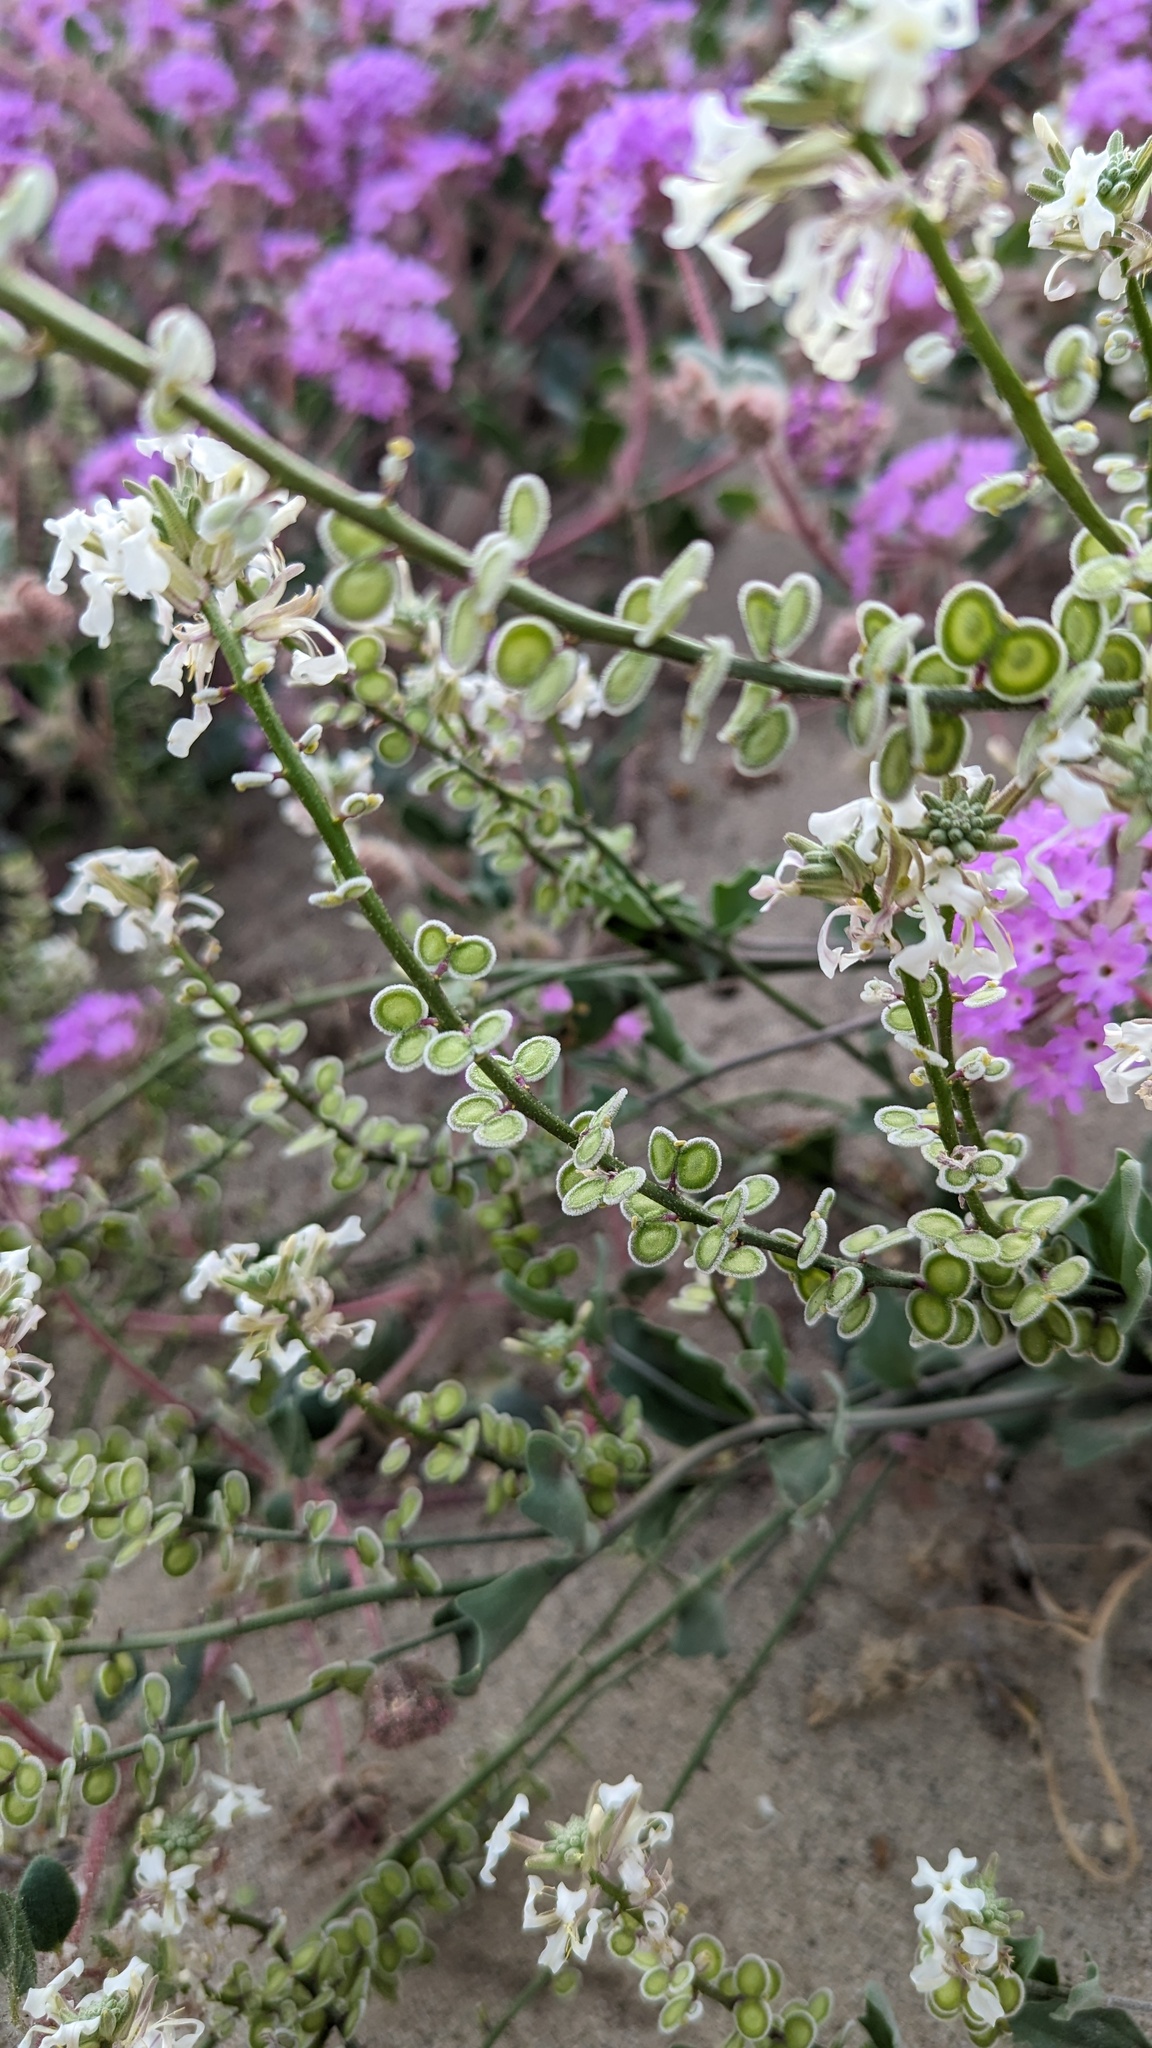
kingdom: Plantae
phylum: Tracheophyta
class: Magnoliopsida
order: Brassicales
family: Brassicaceae
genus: Dithyrea
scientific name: Dithyrea californica
